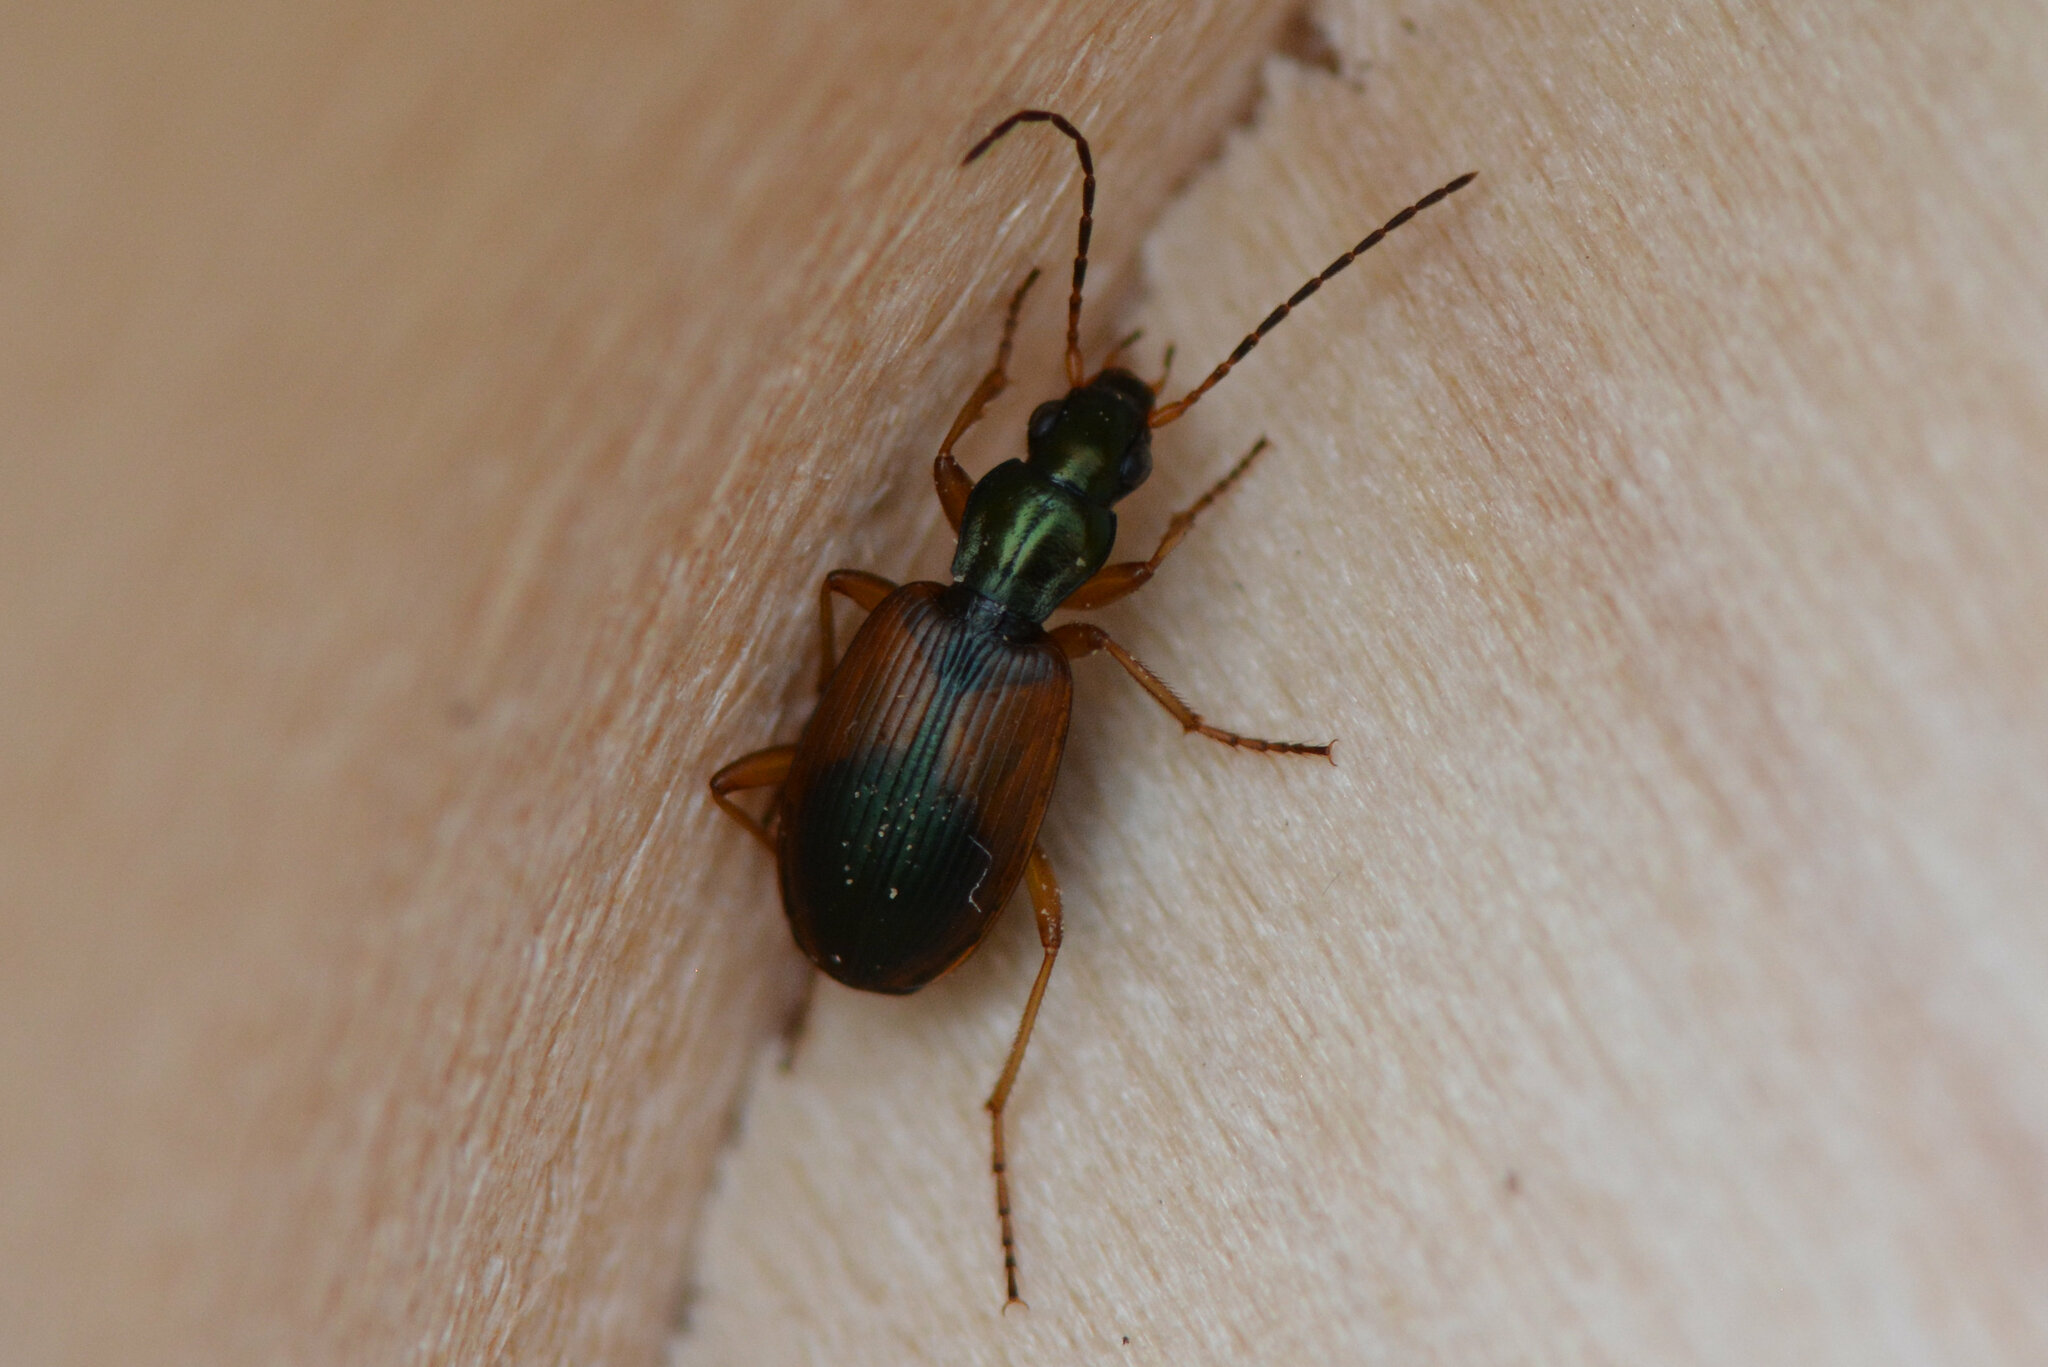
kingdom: Animalia
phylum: Arthropoda
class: Insecta
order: Coleoptera
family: Carabidae
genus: Anchomenus
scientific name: Anchomenus dorsalis
